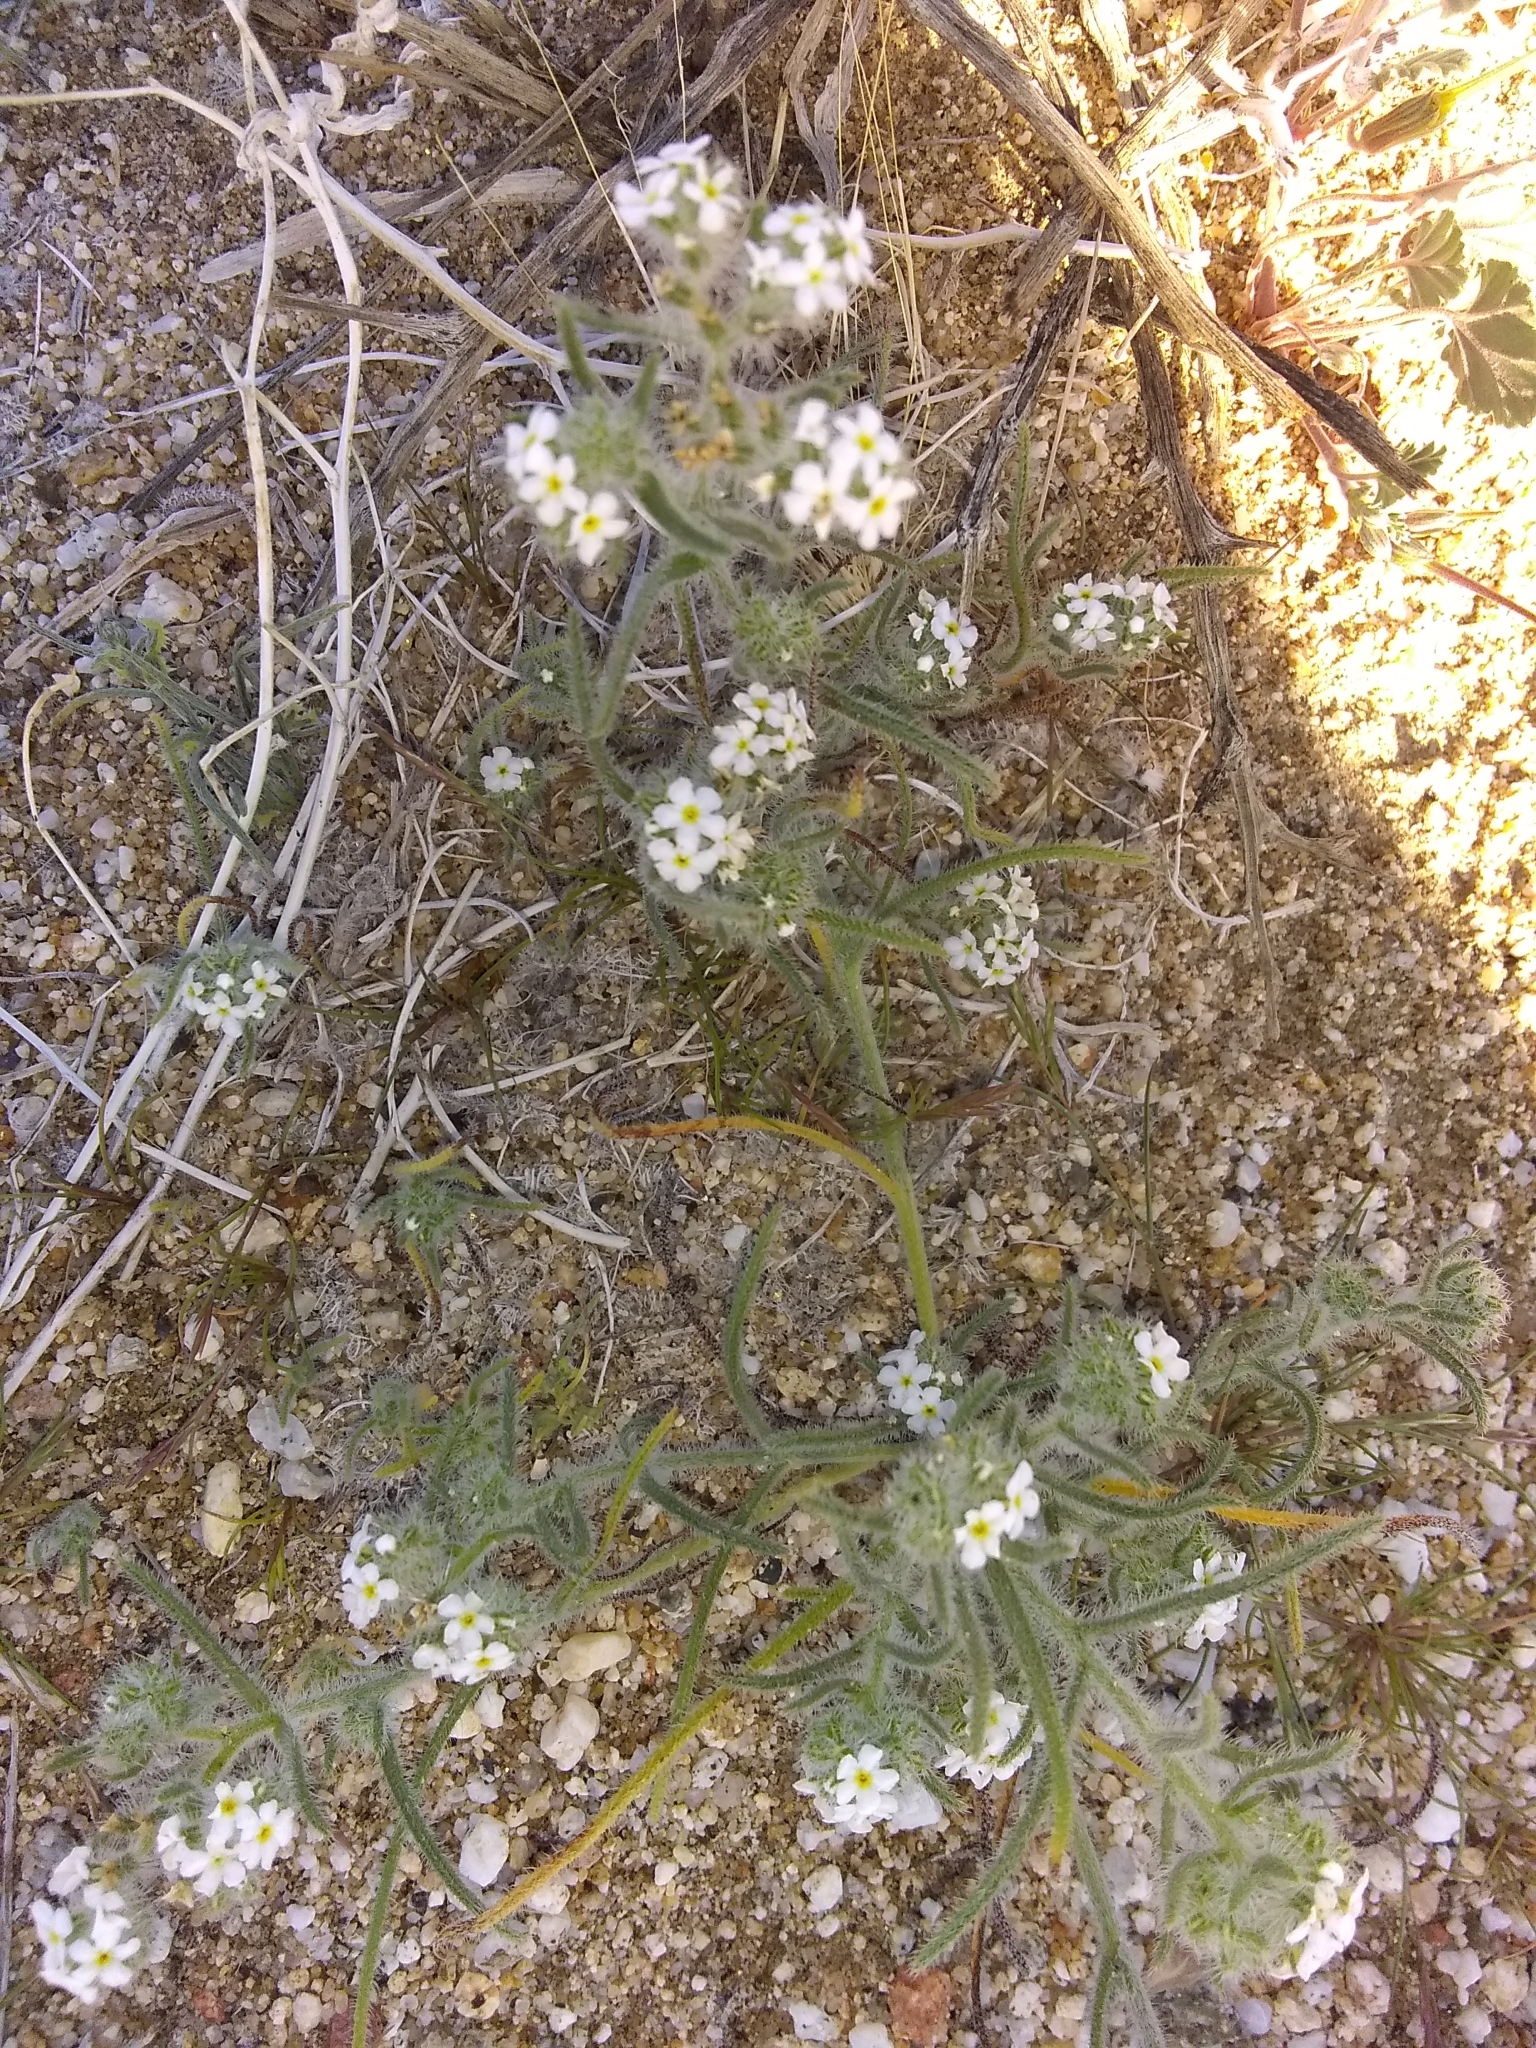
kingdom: Plantae
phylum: Tracheophyta
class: Magnoliopsida
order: Boraginales
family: Boraginaceae
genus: Johnstonella
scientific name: Johnstonella angustifolia
